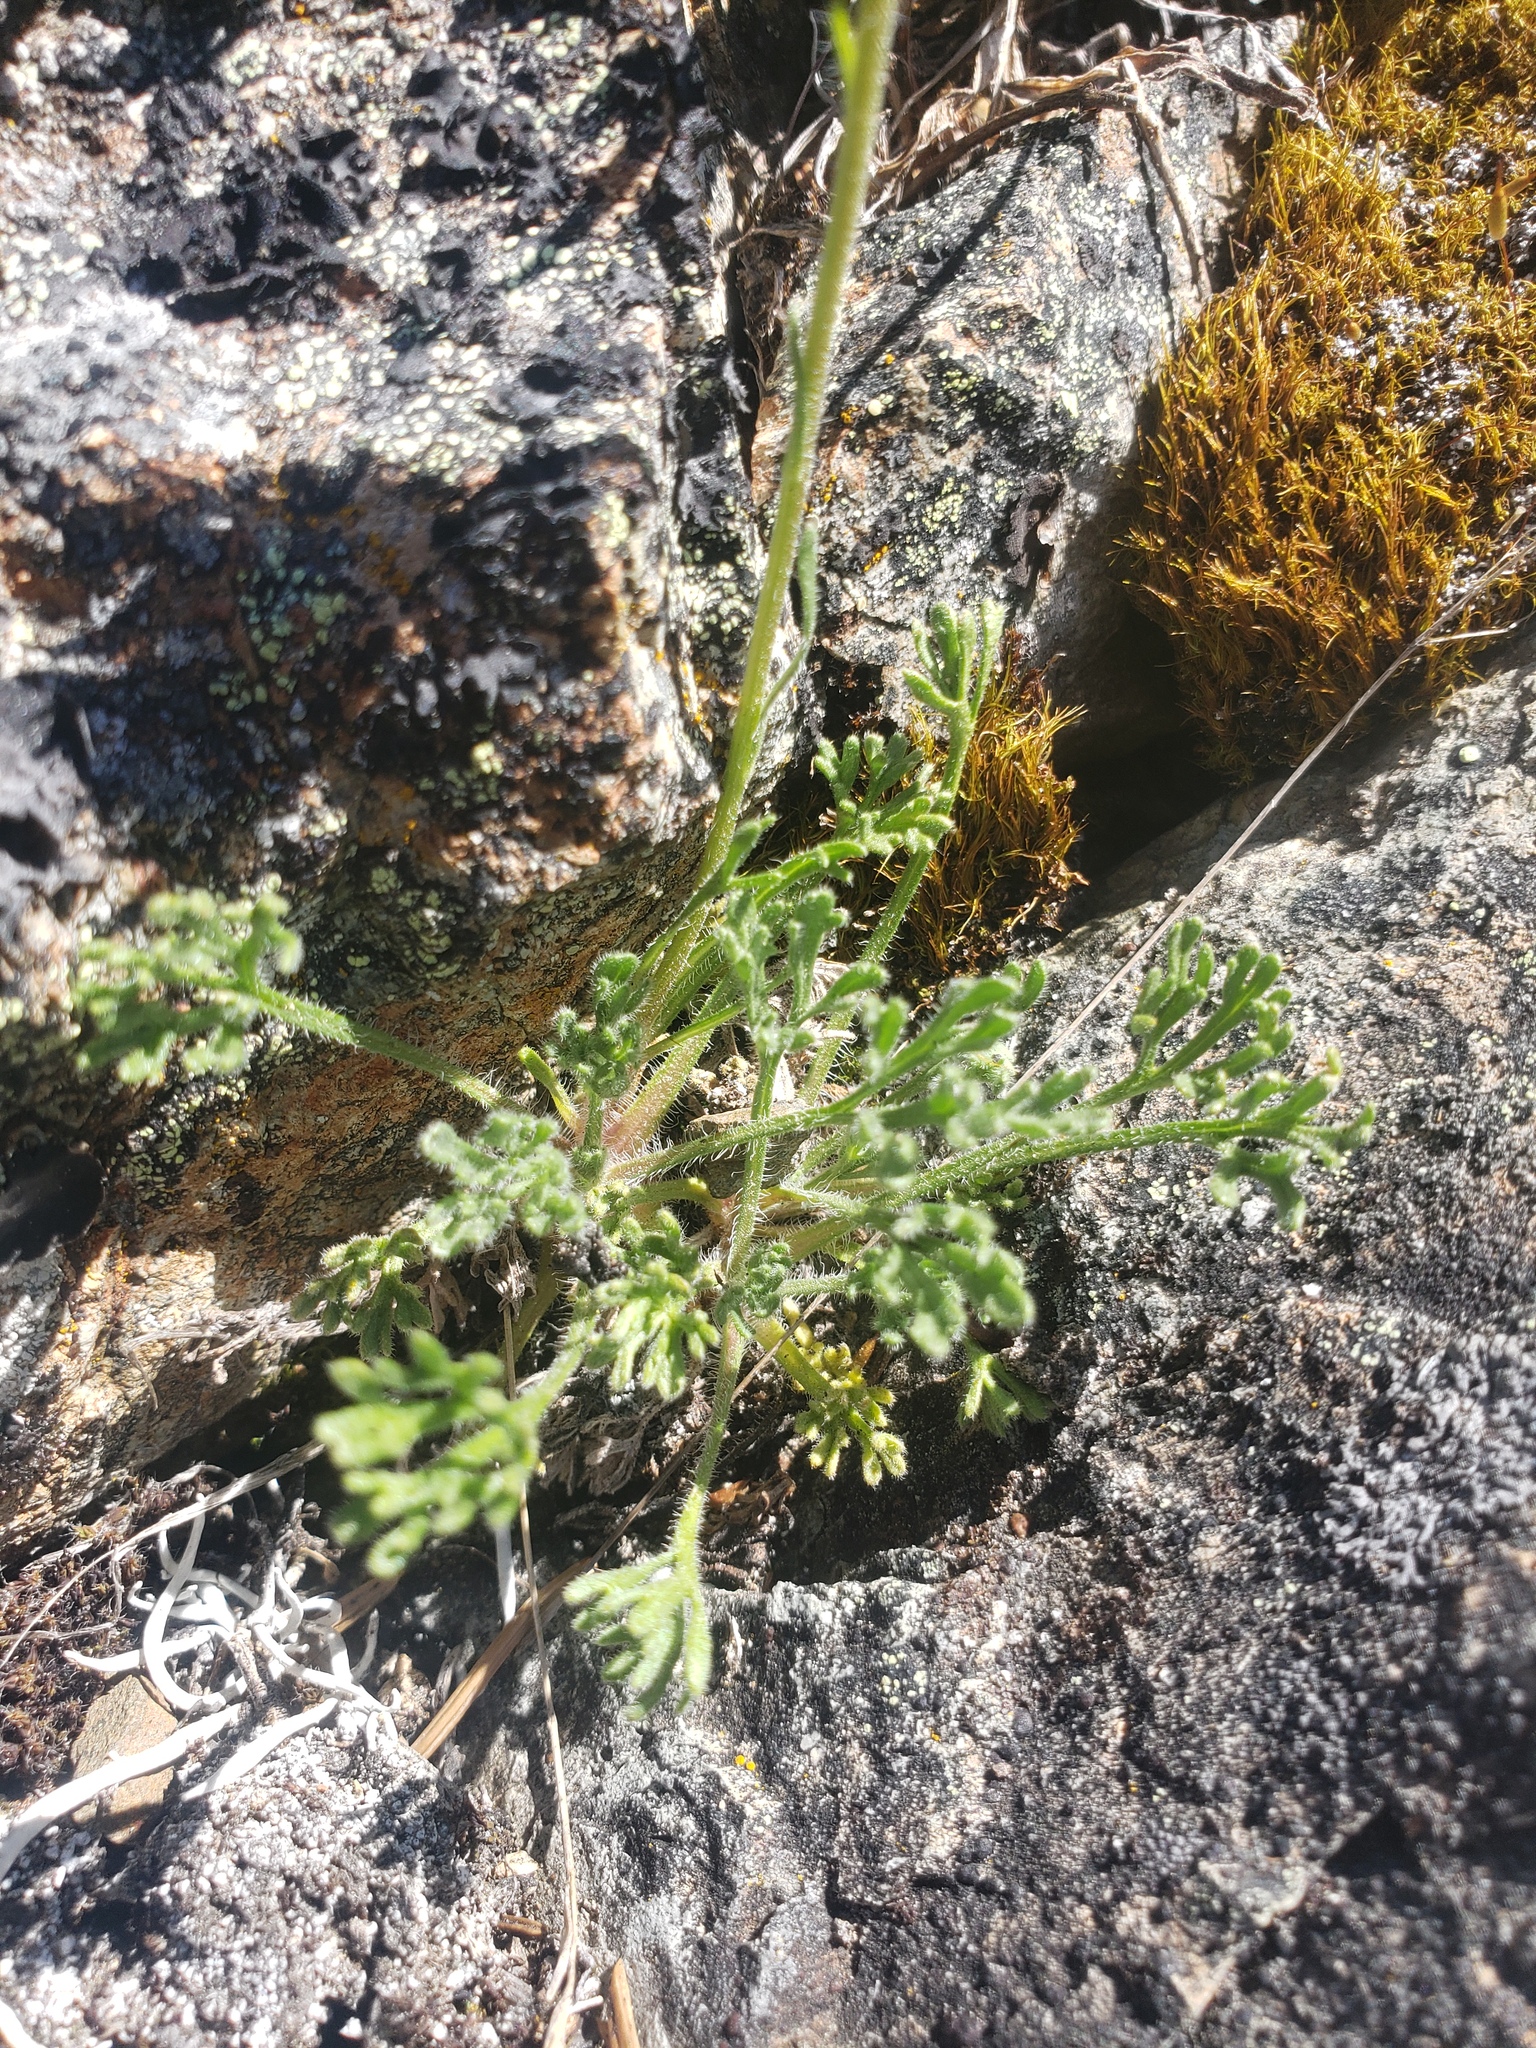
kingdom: Plantae
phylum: Tracheophyta
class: Magnoliopsida
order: Asterales
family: Asteraceae
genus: Erigeron
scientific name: Erigeron compositus
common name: Dwarf mountain fleabane
